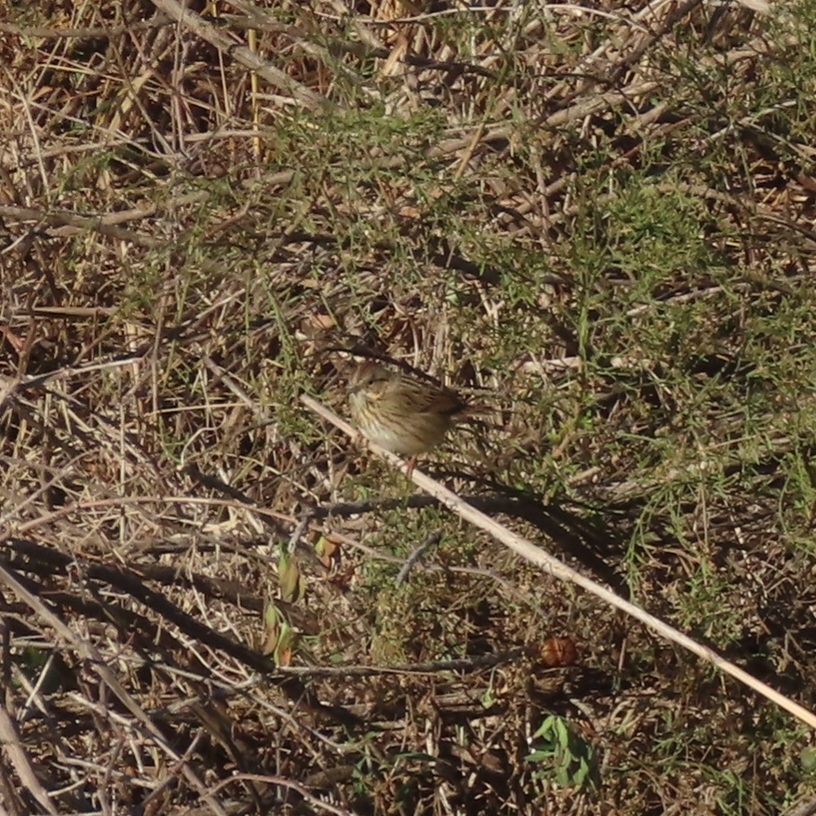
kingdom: Animalia
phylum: Chordata
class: Aves
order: Passeriformes
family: Passerellidae
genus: Melospiza
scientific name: Melospiza lincolnii
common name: Lincoln's sparrow
